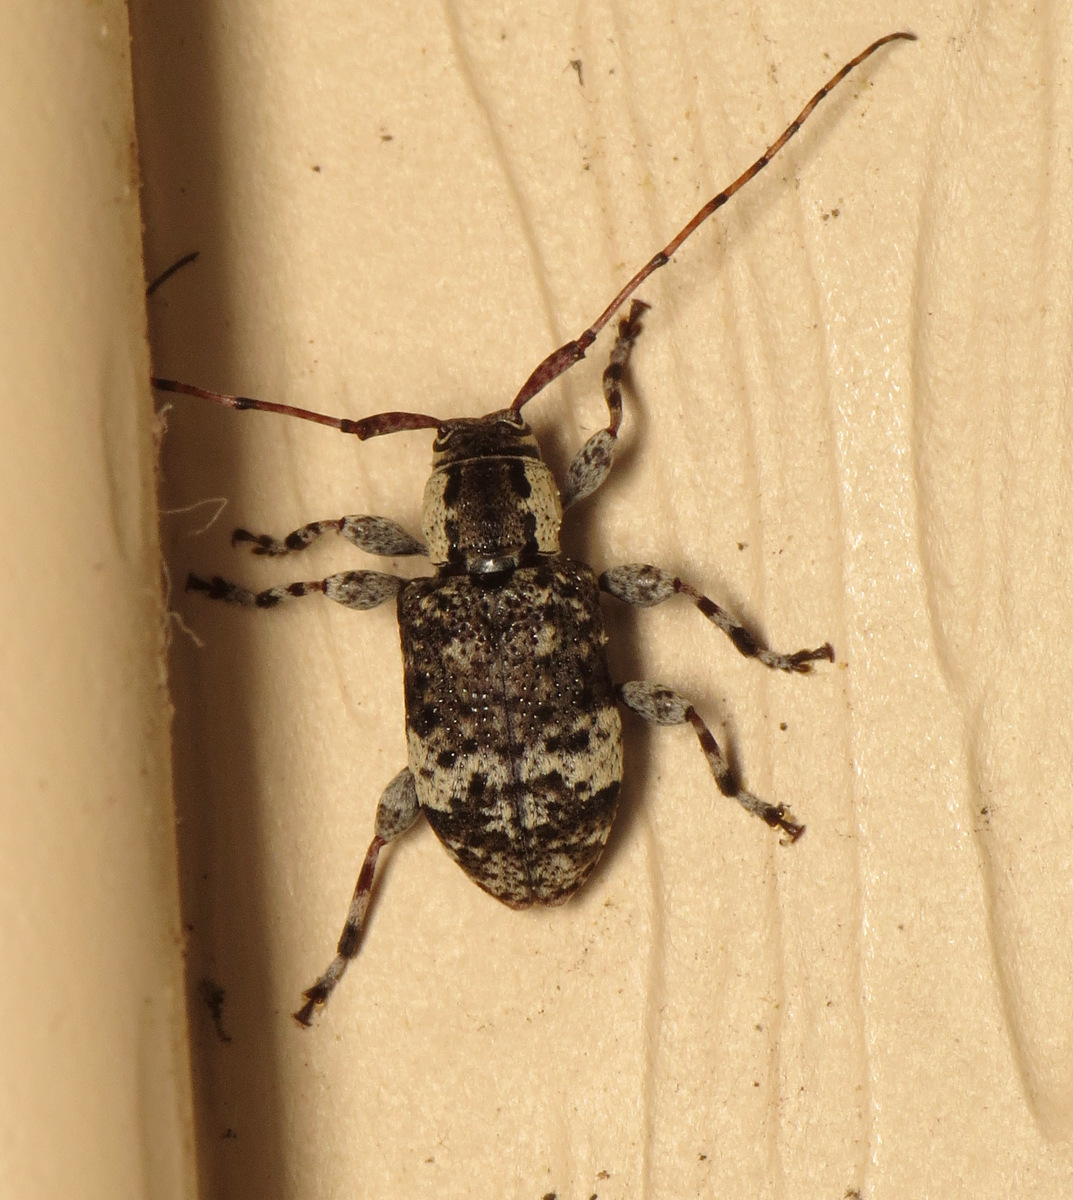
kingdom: Animalia
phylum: Arthropoda
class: Insecta
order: Coleoptera
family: Cerambycidae
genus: Astylopsis
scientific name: Astylopsis macula
